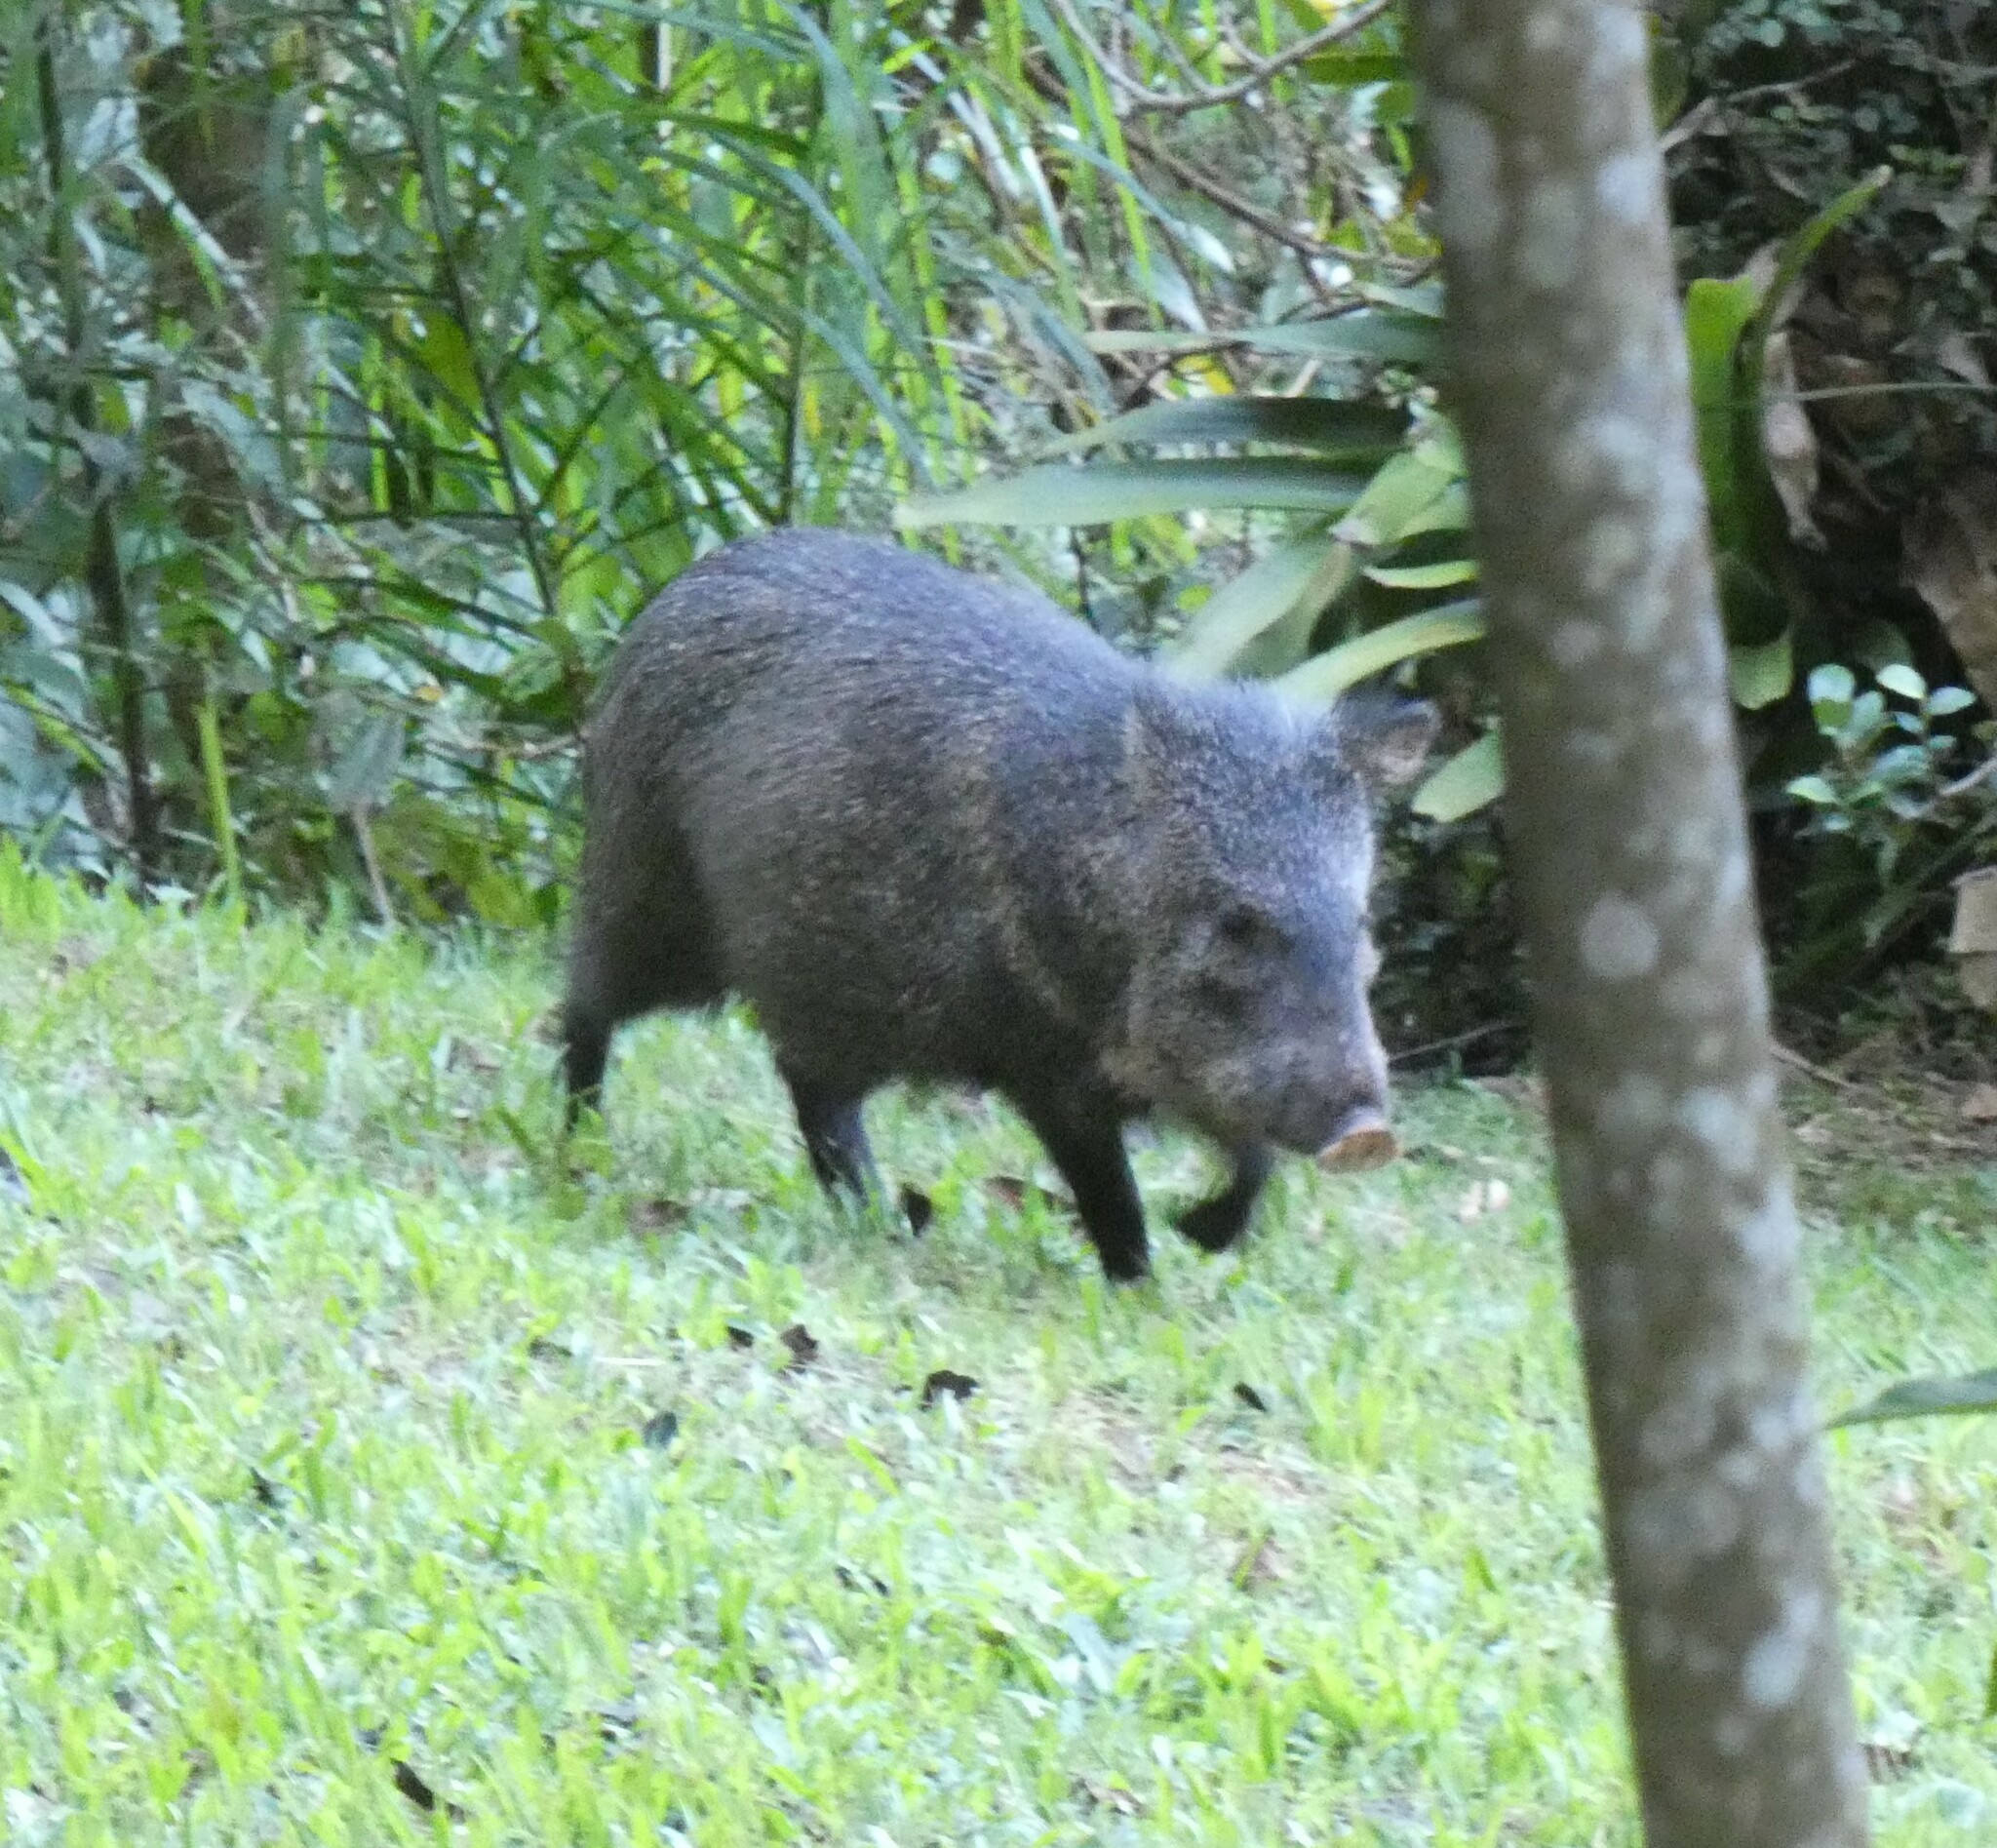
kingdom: Animalia
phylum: Chordata
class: Mammalia
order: Artiodactyla
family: Tayassuidae
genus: Pecari
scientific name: Pecari tajacu
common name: Collared peccary
